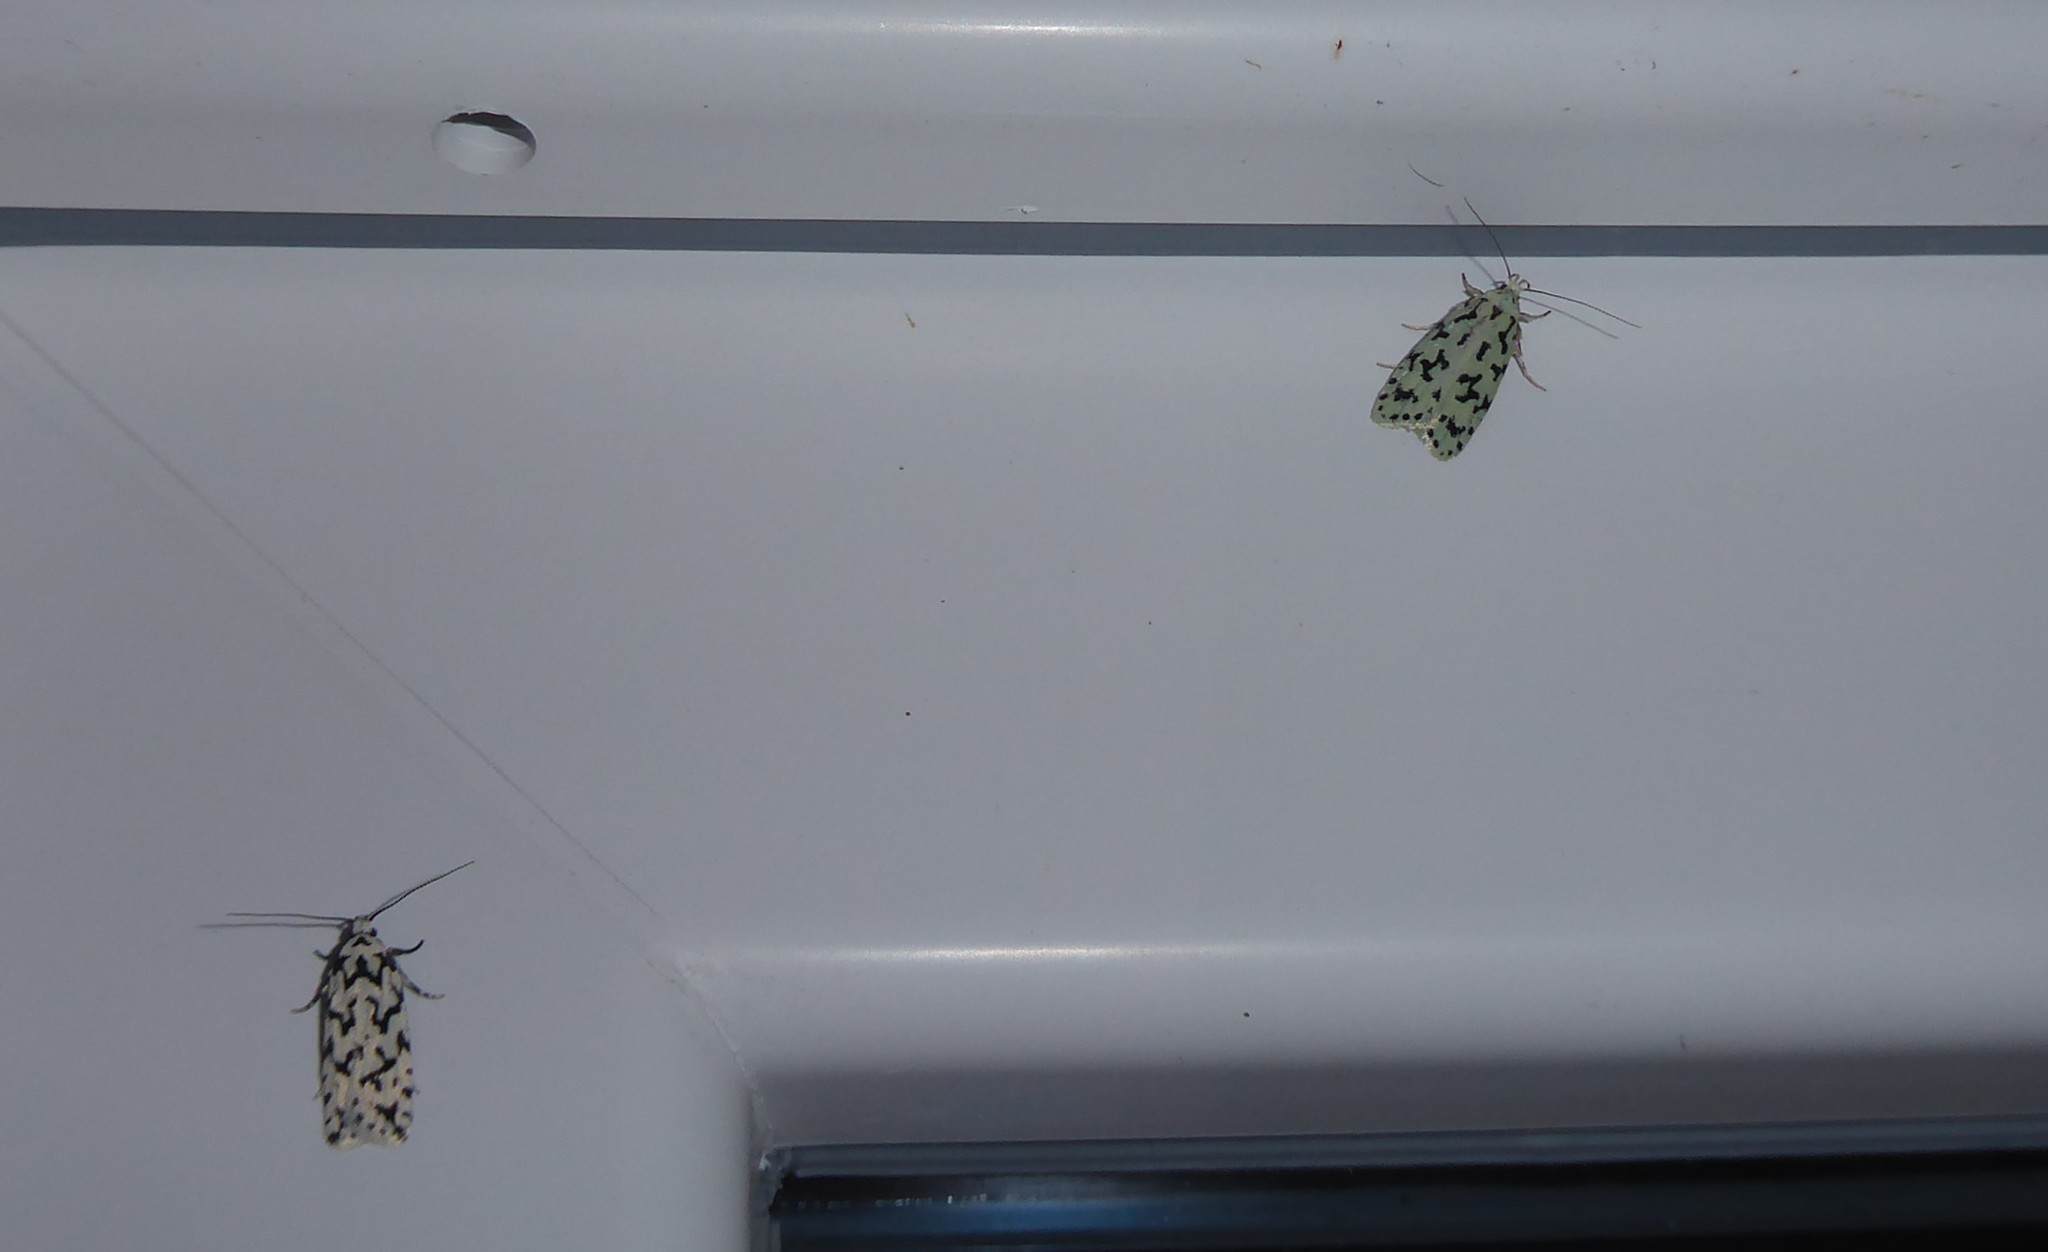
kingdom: Animalia
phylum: Arthropoda
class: Insecta
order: Lepidoptera
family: Oecophoridae
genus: Izatha
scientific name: Izatha huttoni
